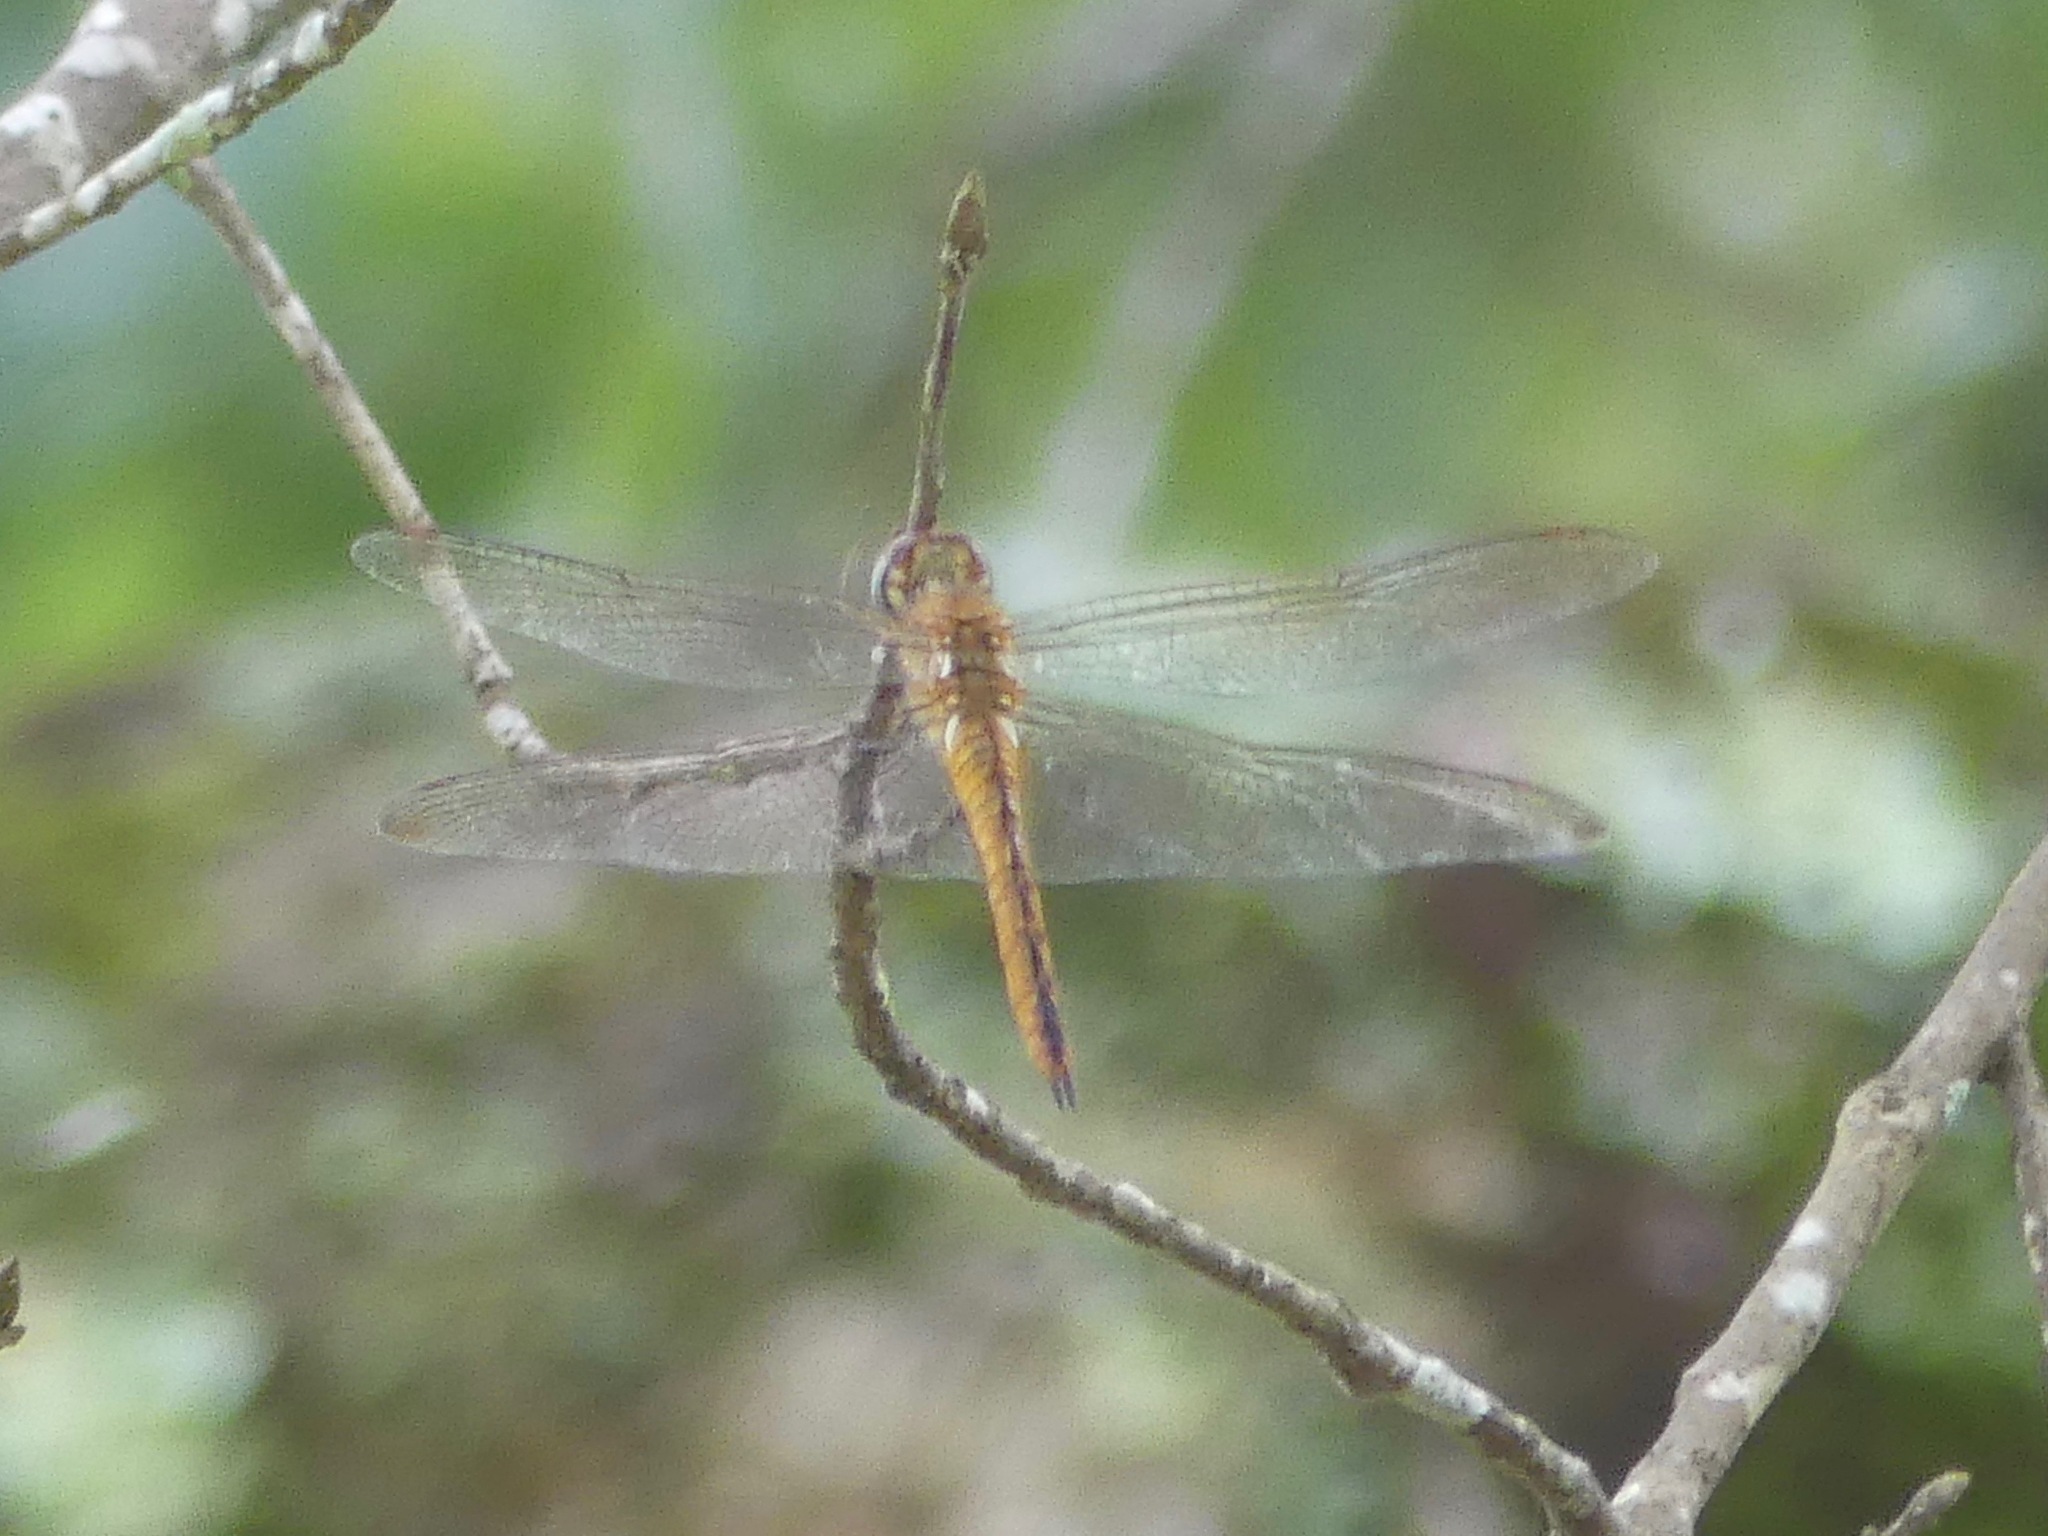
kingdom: Animalia
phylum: Arthropoda
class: Insecta
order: Odonata
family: Libellulidae
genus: Pantala
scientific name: Pantala flavescens
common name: Wandering glider
